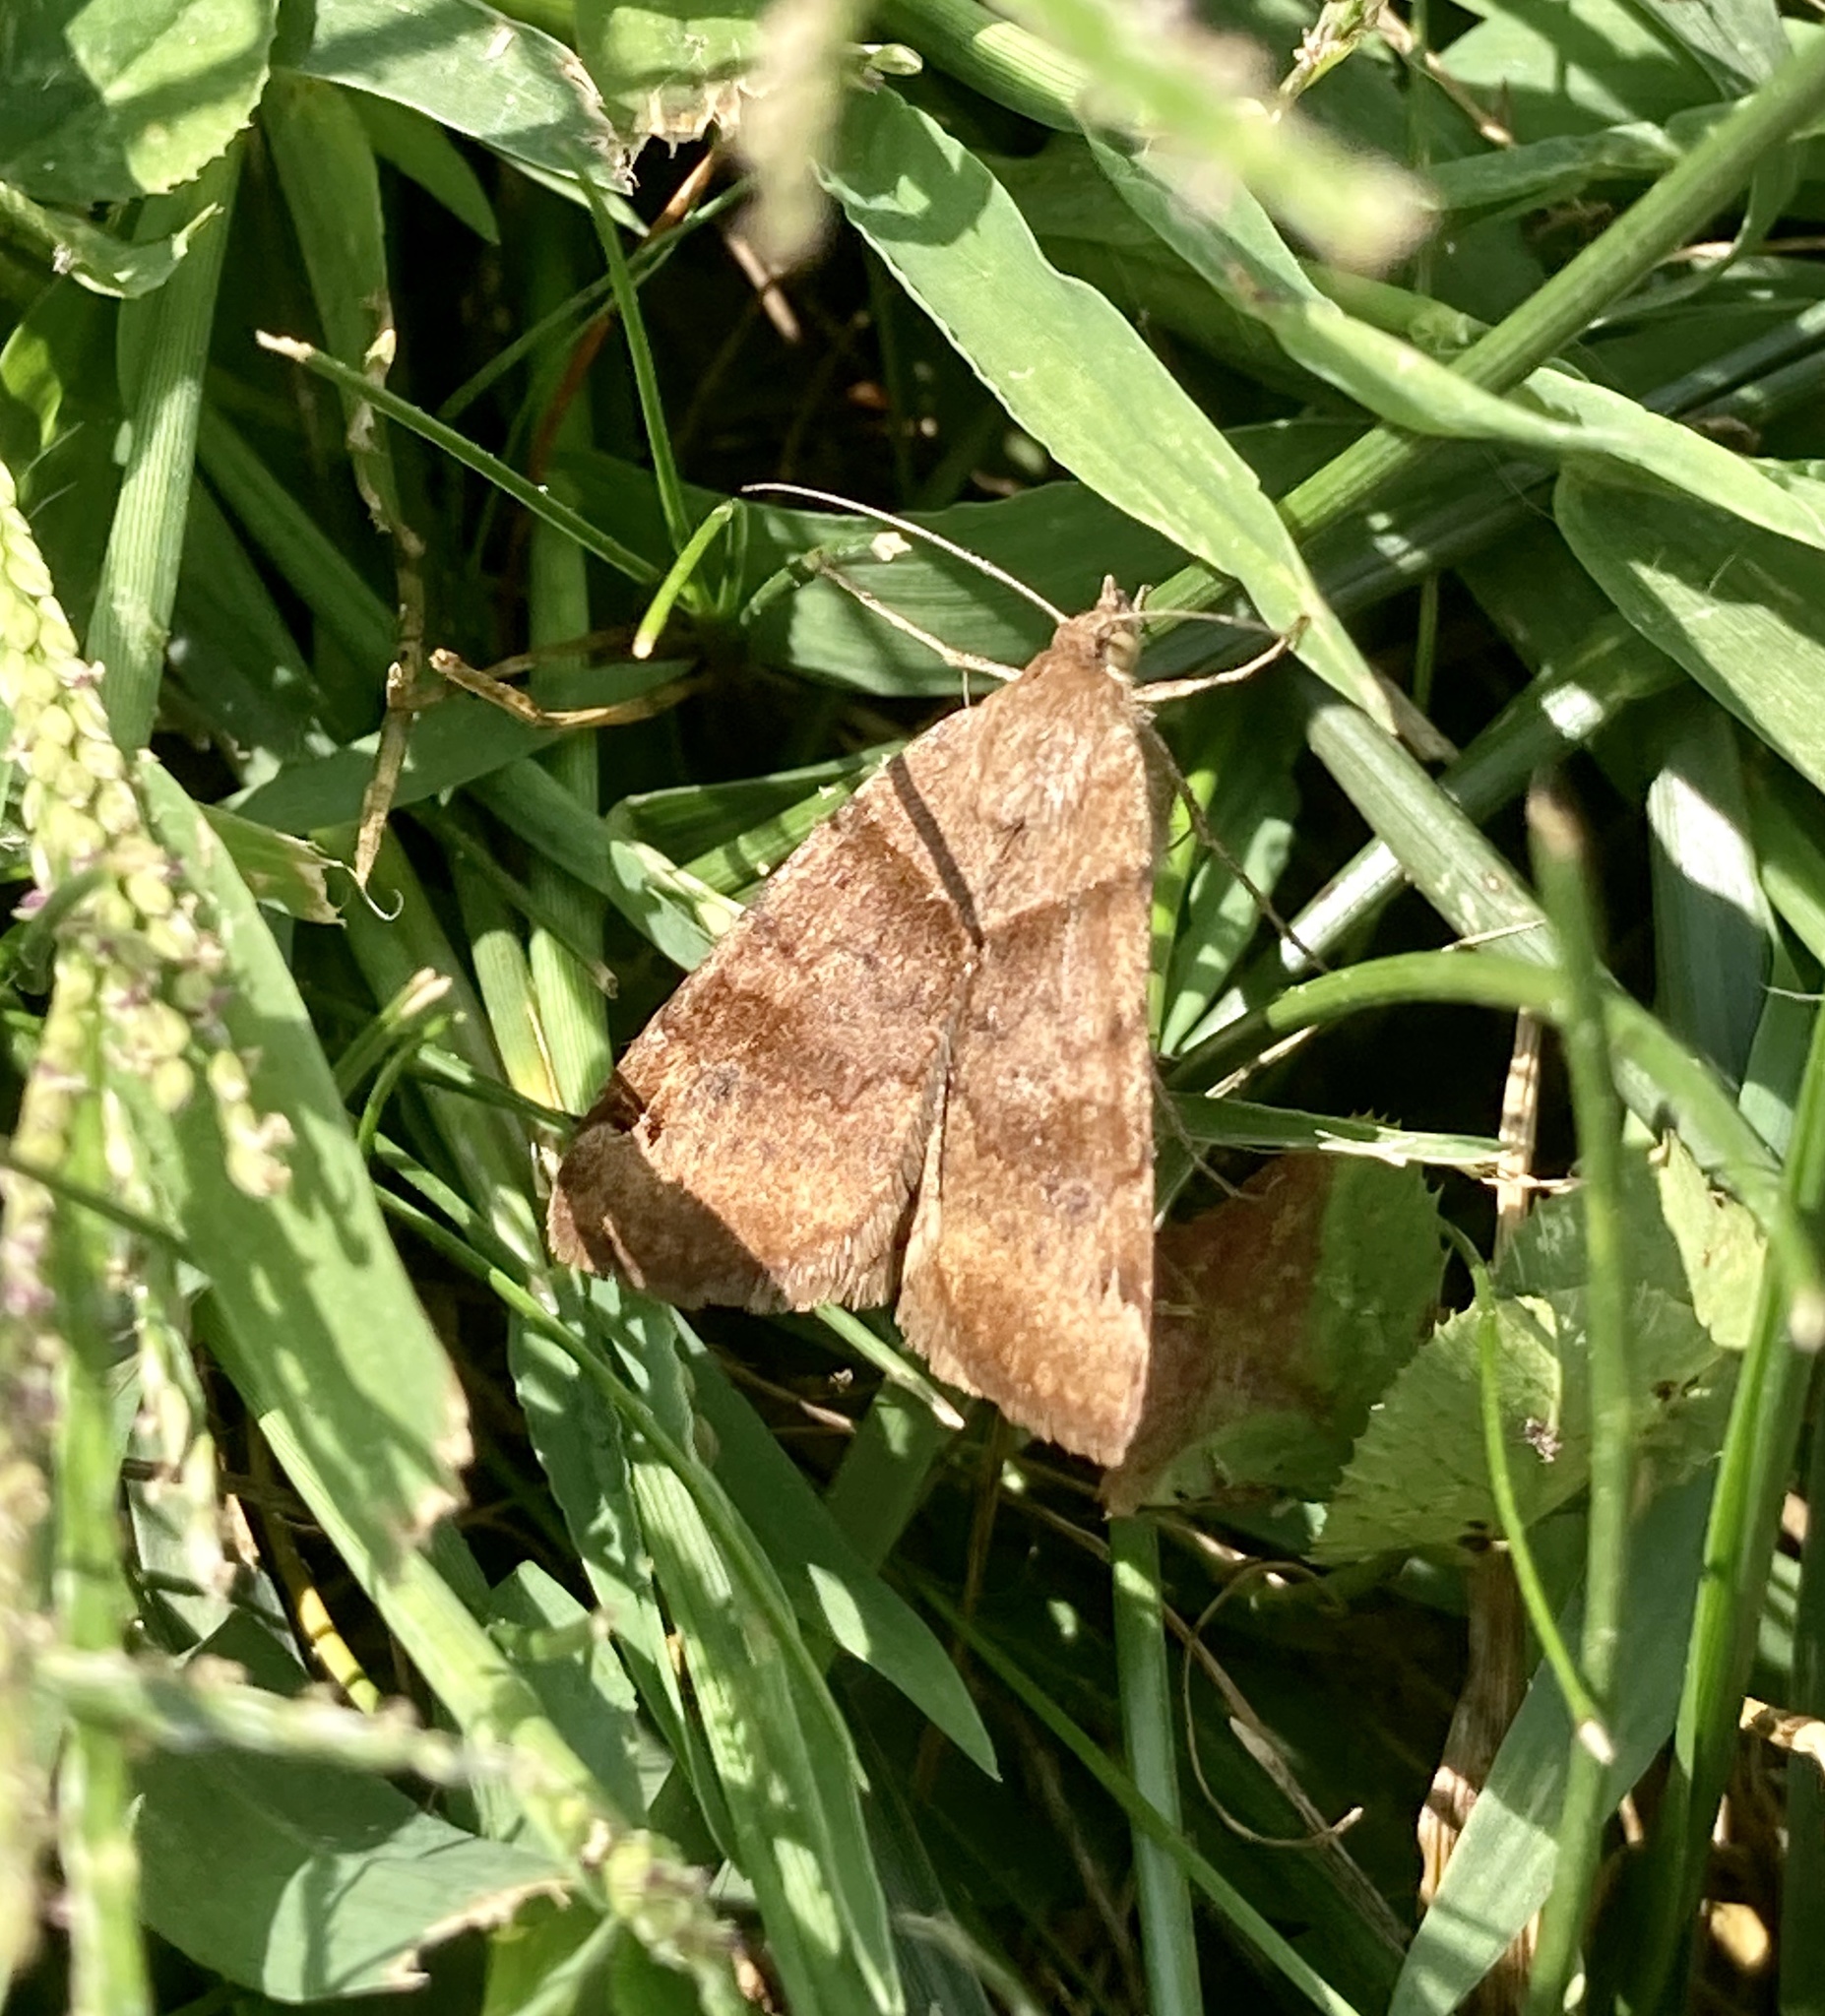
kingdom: Animalia
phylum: Arthropoda
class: Insecta
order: Lepidoptera
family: Erebidae
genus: Caenurgina
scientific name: Caenurgina crassiuscula
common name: Double-barred
